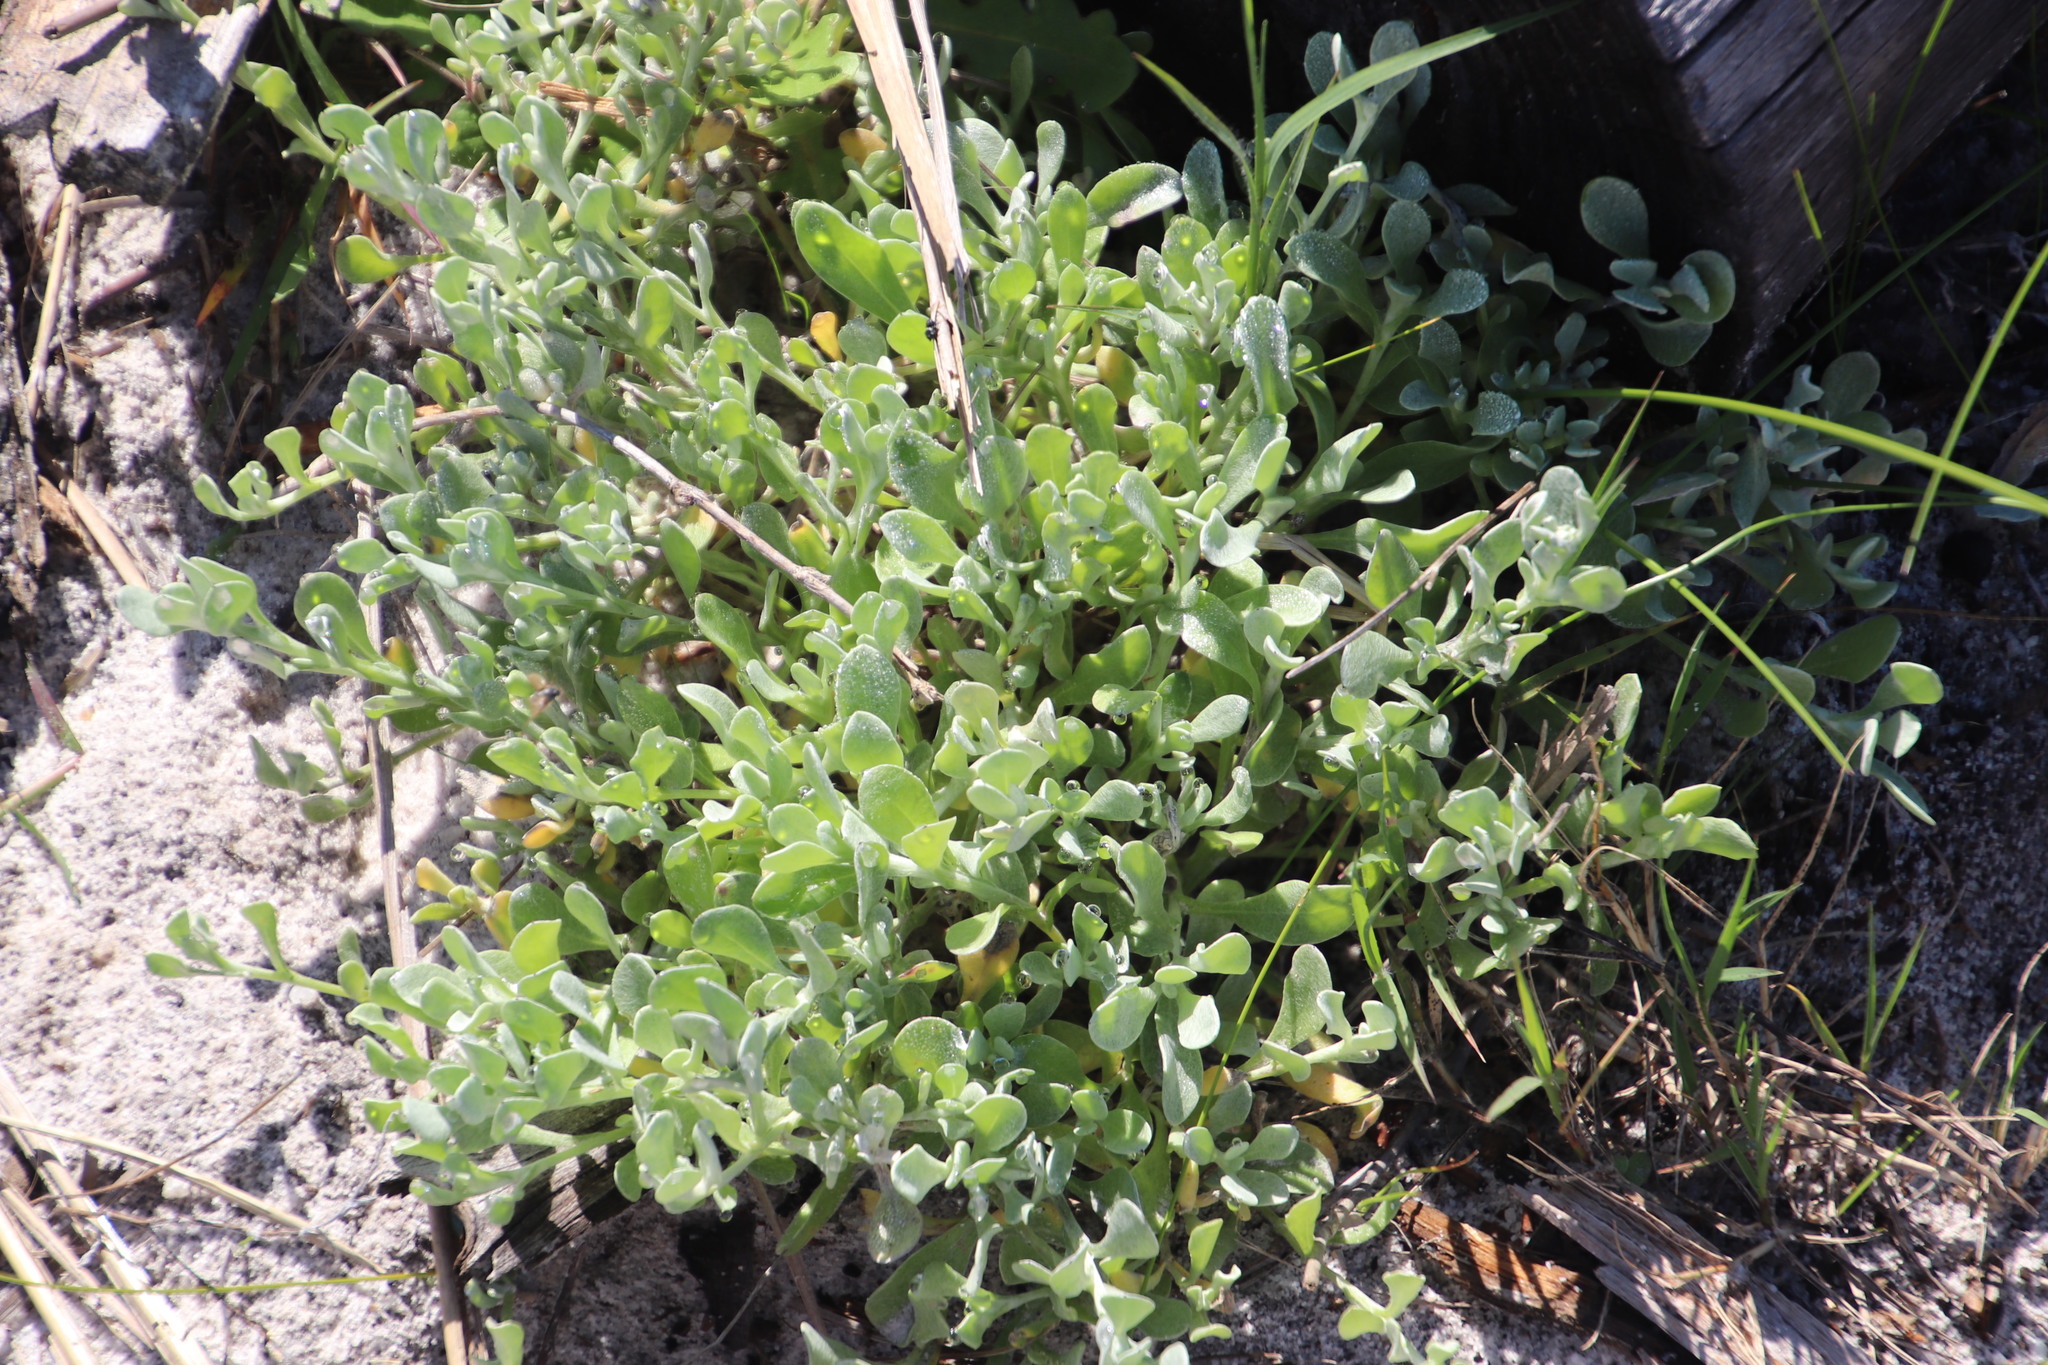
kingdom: Plantae
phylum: Tracheophyta
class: Magnoliopsida
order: Asterales
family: Asteraceae
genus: Helichrysum
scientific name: Helichrysum indicum
